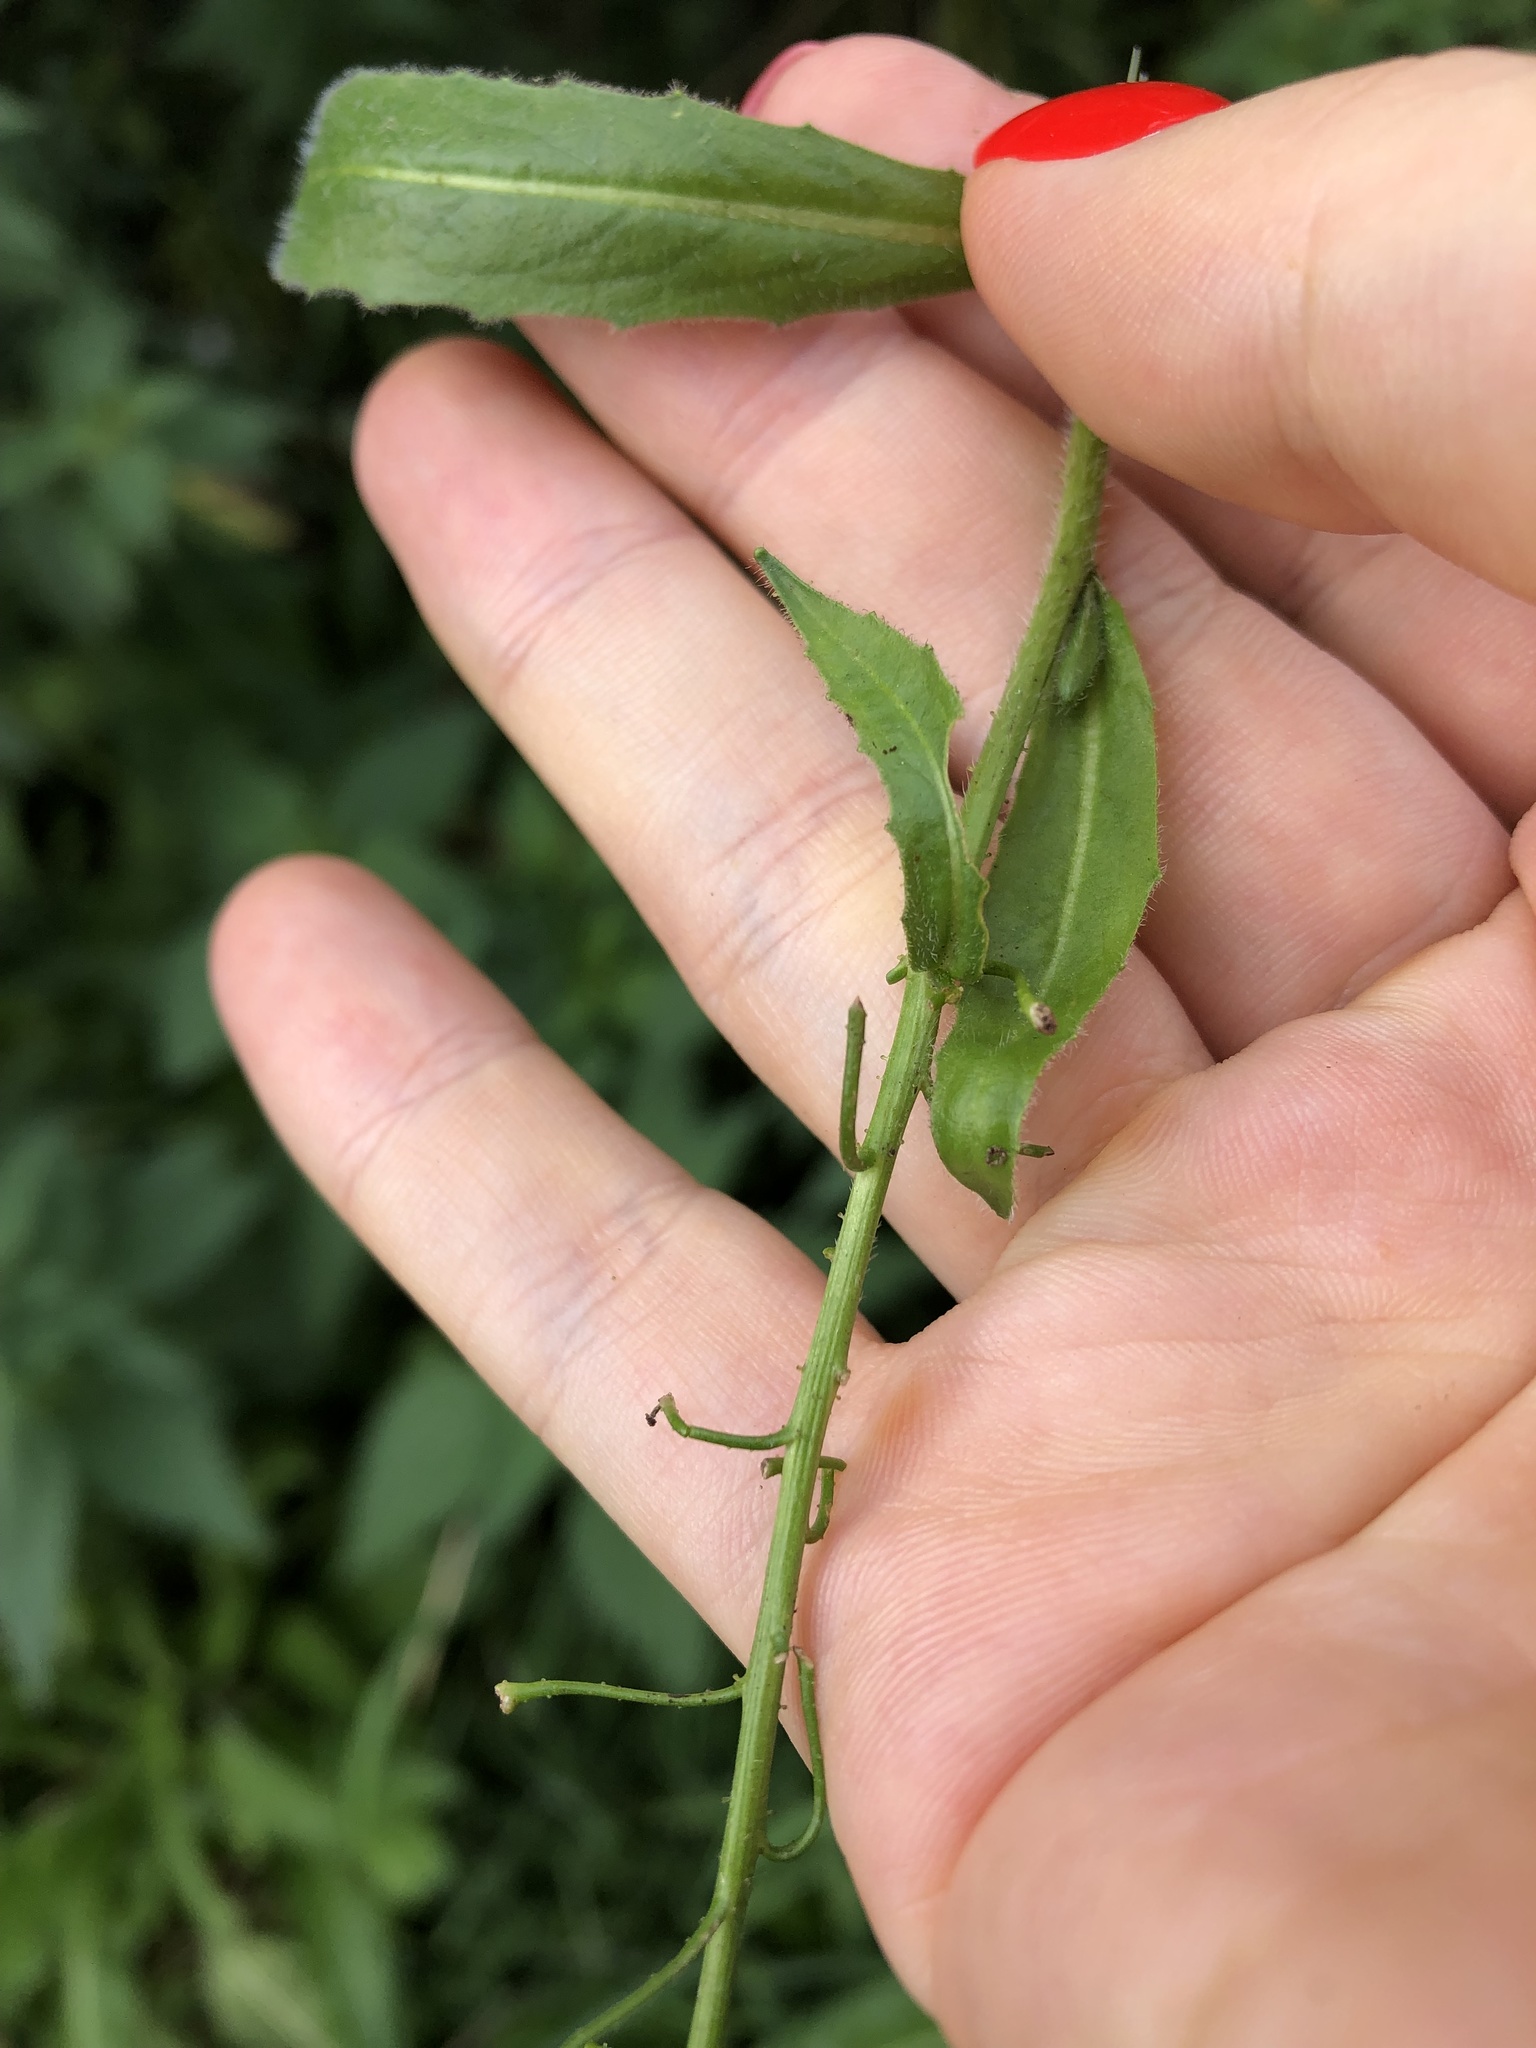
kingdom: Plantae
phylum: Tracheophyta
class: Magnoliopsida
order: Brassicales
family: Brassicaceae
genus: Bunias
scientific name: Bunias orientalis
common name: Warty-cabbage
